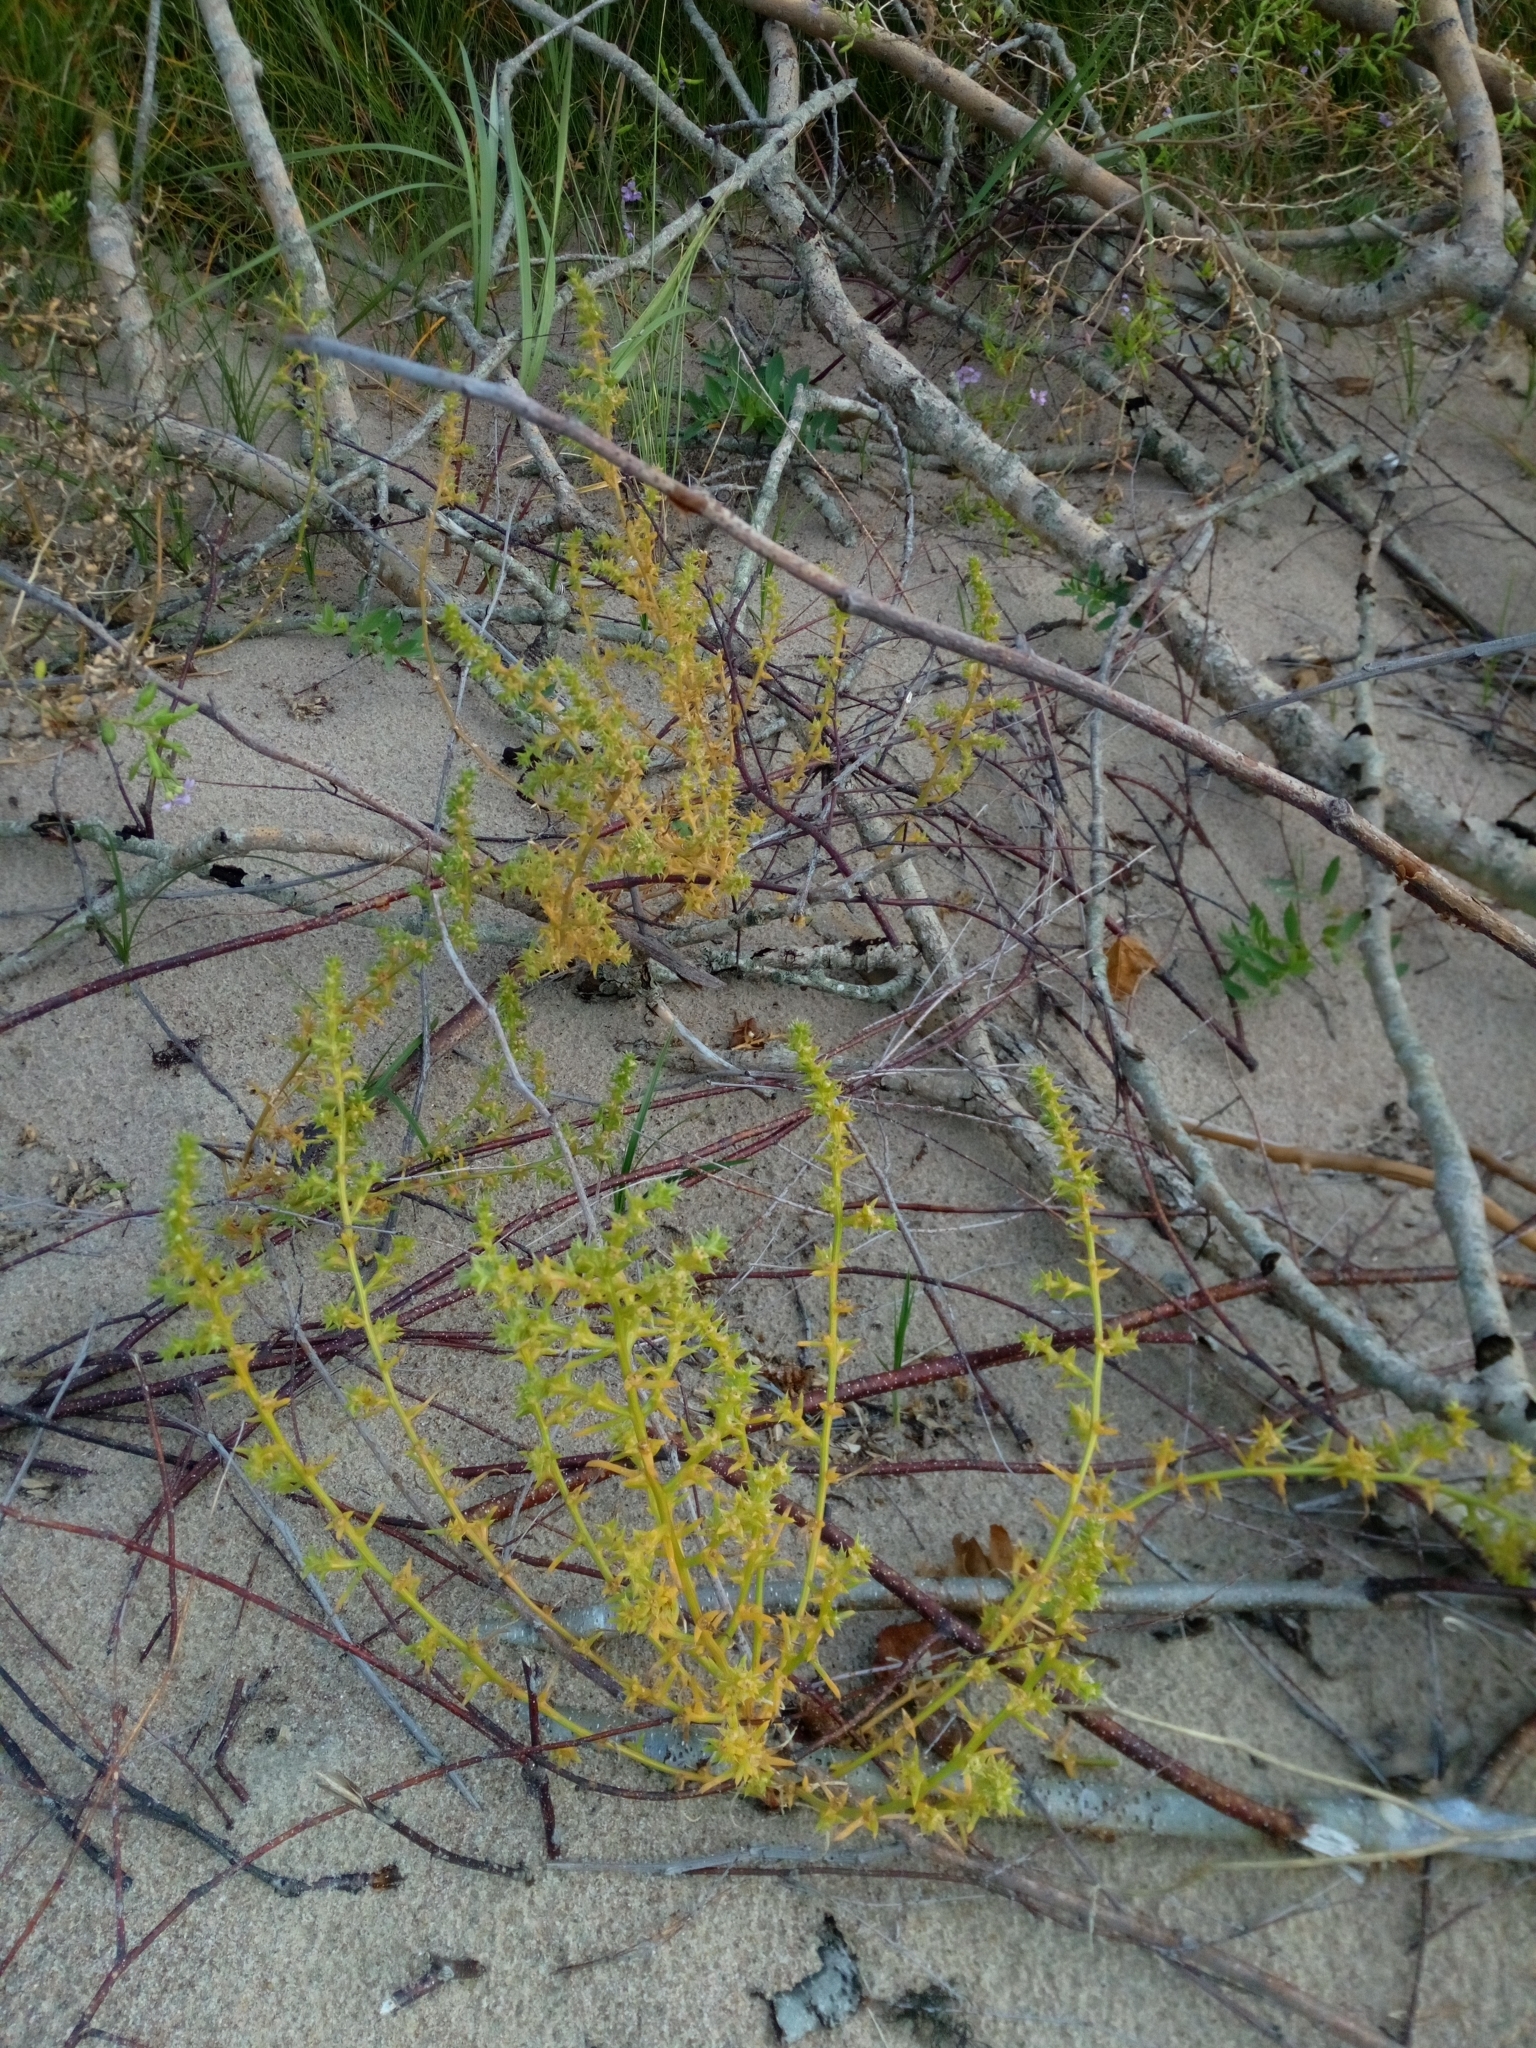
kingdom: Plantae
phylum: Tracheophyta
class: Magnoliopsida
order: Caryophyllales
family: Amaranthaceae
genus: Salsola
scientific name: Salsola kali
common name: Saltwort
